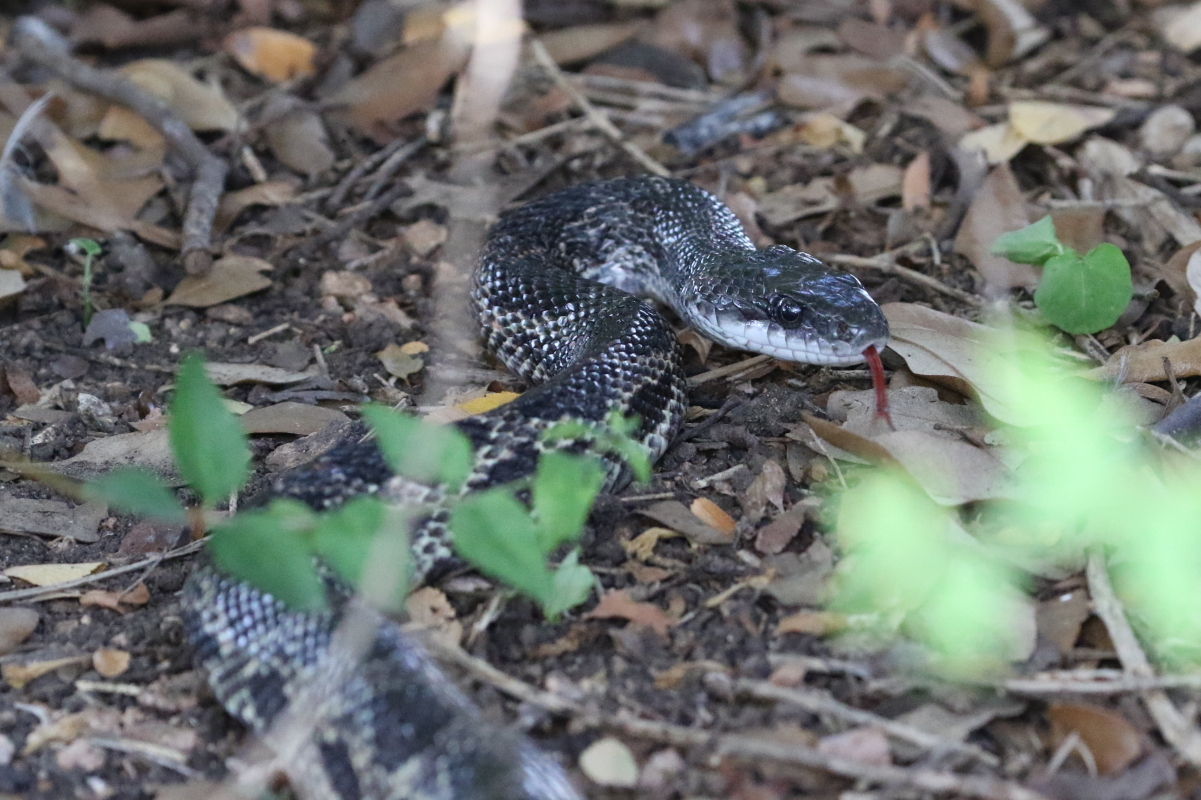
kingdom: Animalia
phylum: Chordata
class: Squamata
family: Colubridae
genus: Pantherophis
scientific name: Pantherophis obsoletus
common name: Black rat snake
